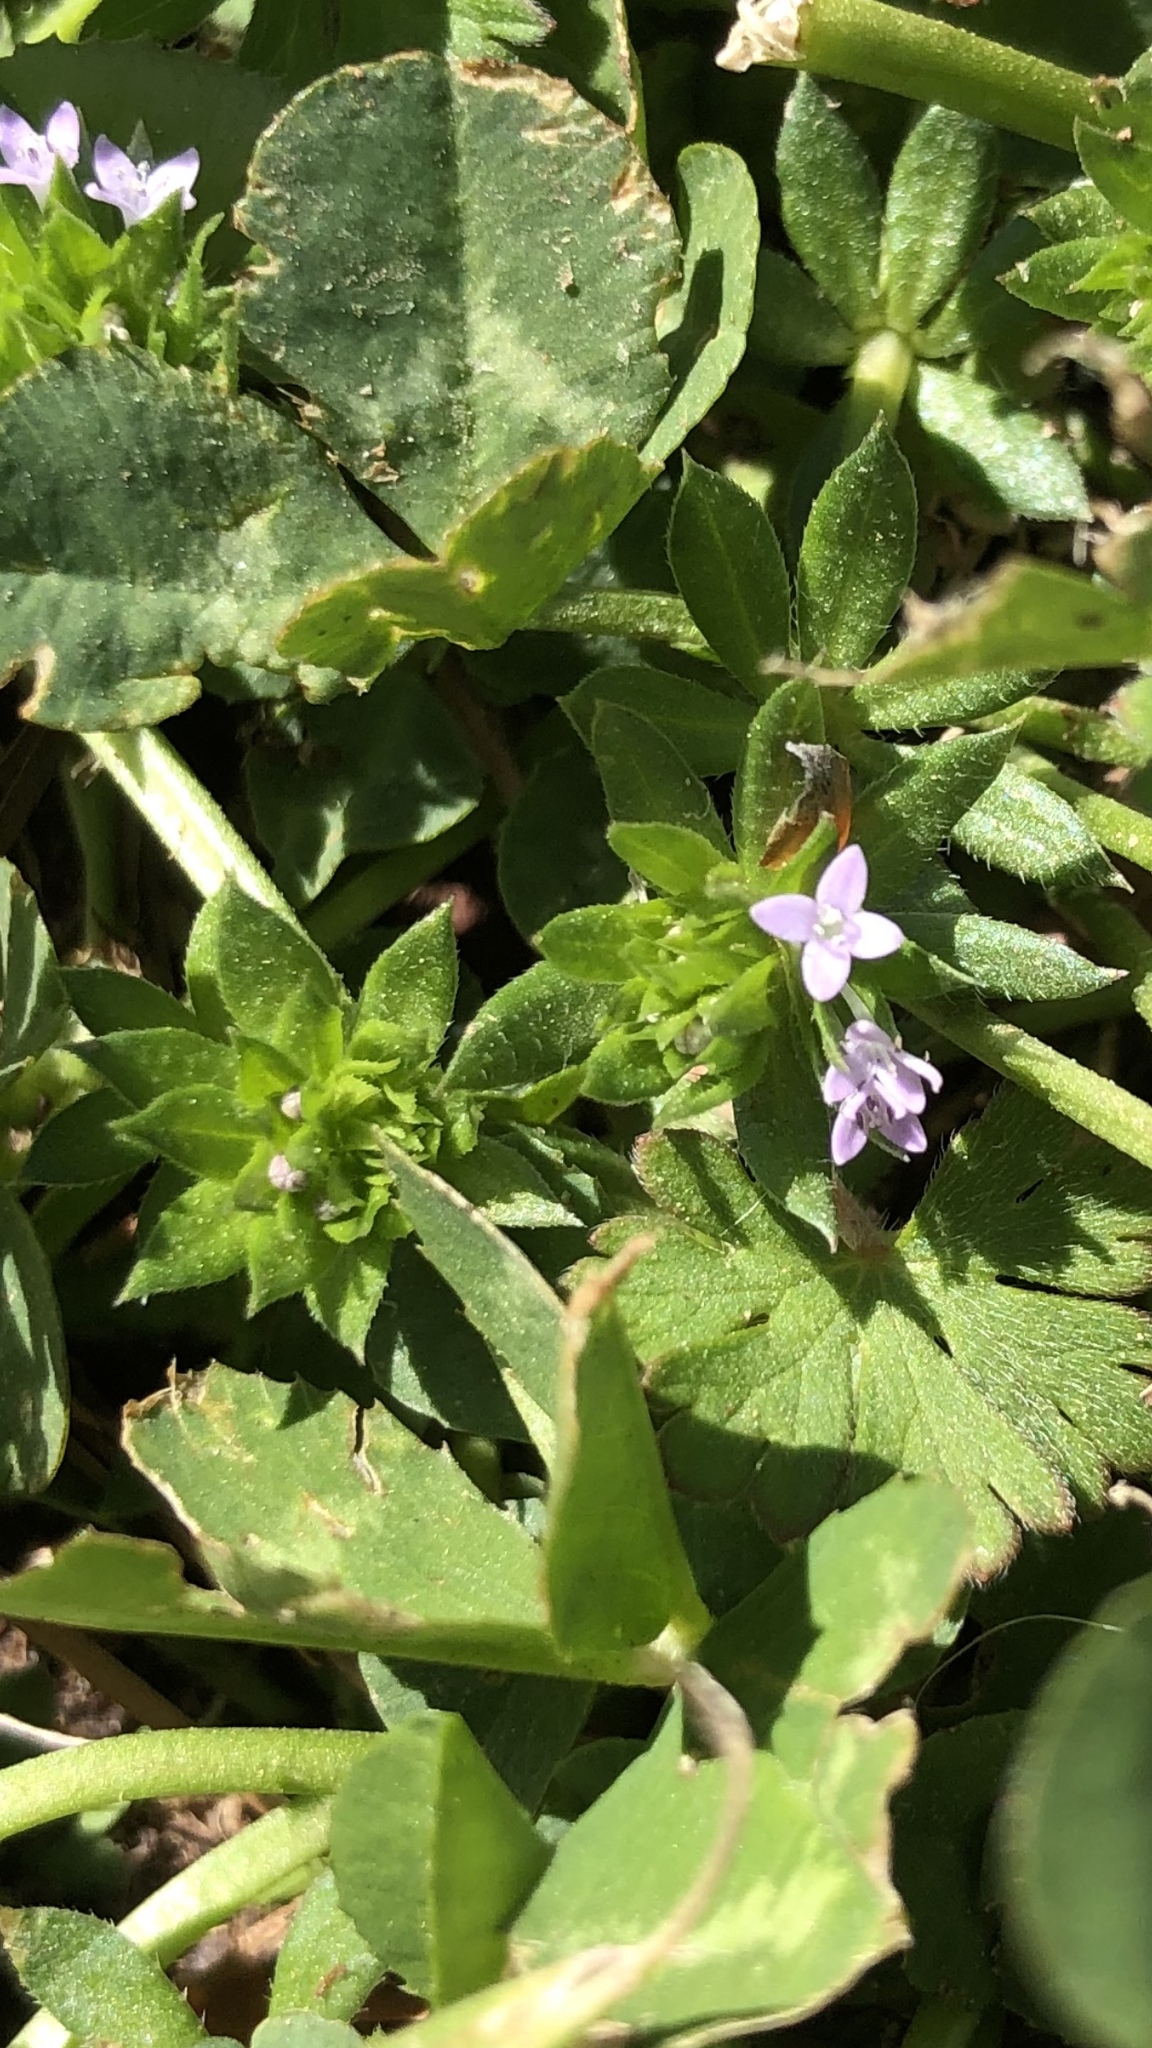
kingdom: Plantae
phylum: Tracheophyta
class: Magnoliopsida
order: Gentianales
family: Rubiaceae
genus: Sherardia
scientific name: Sherardia arvensis
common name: Field madder
